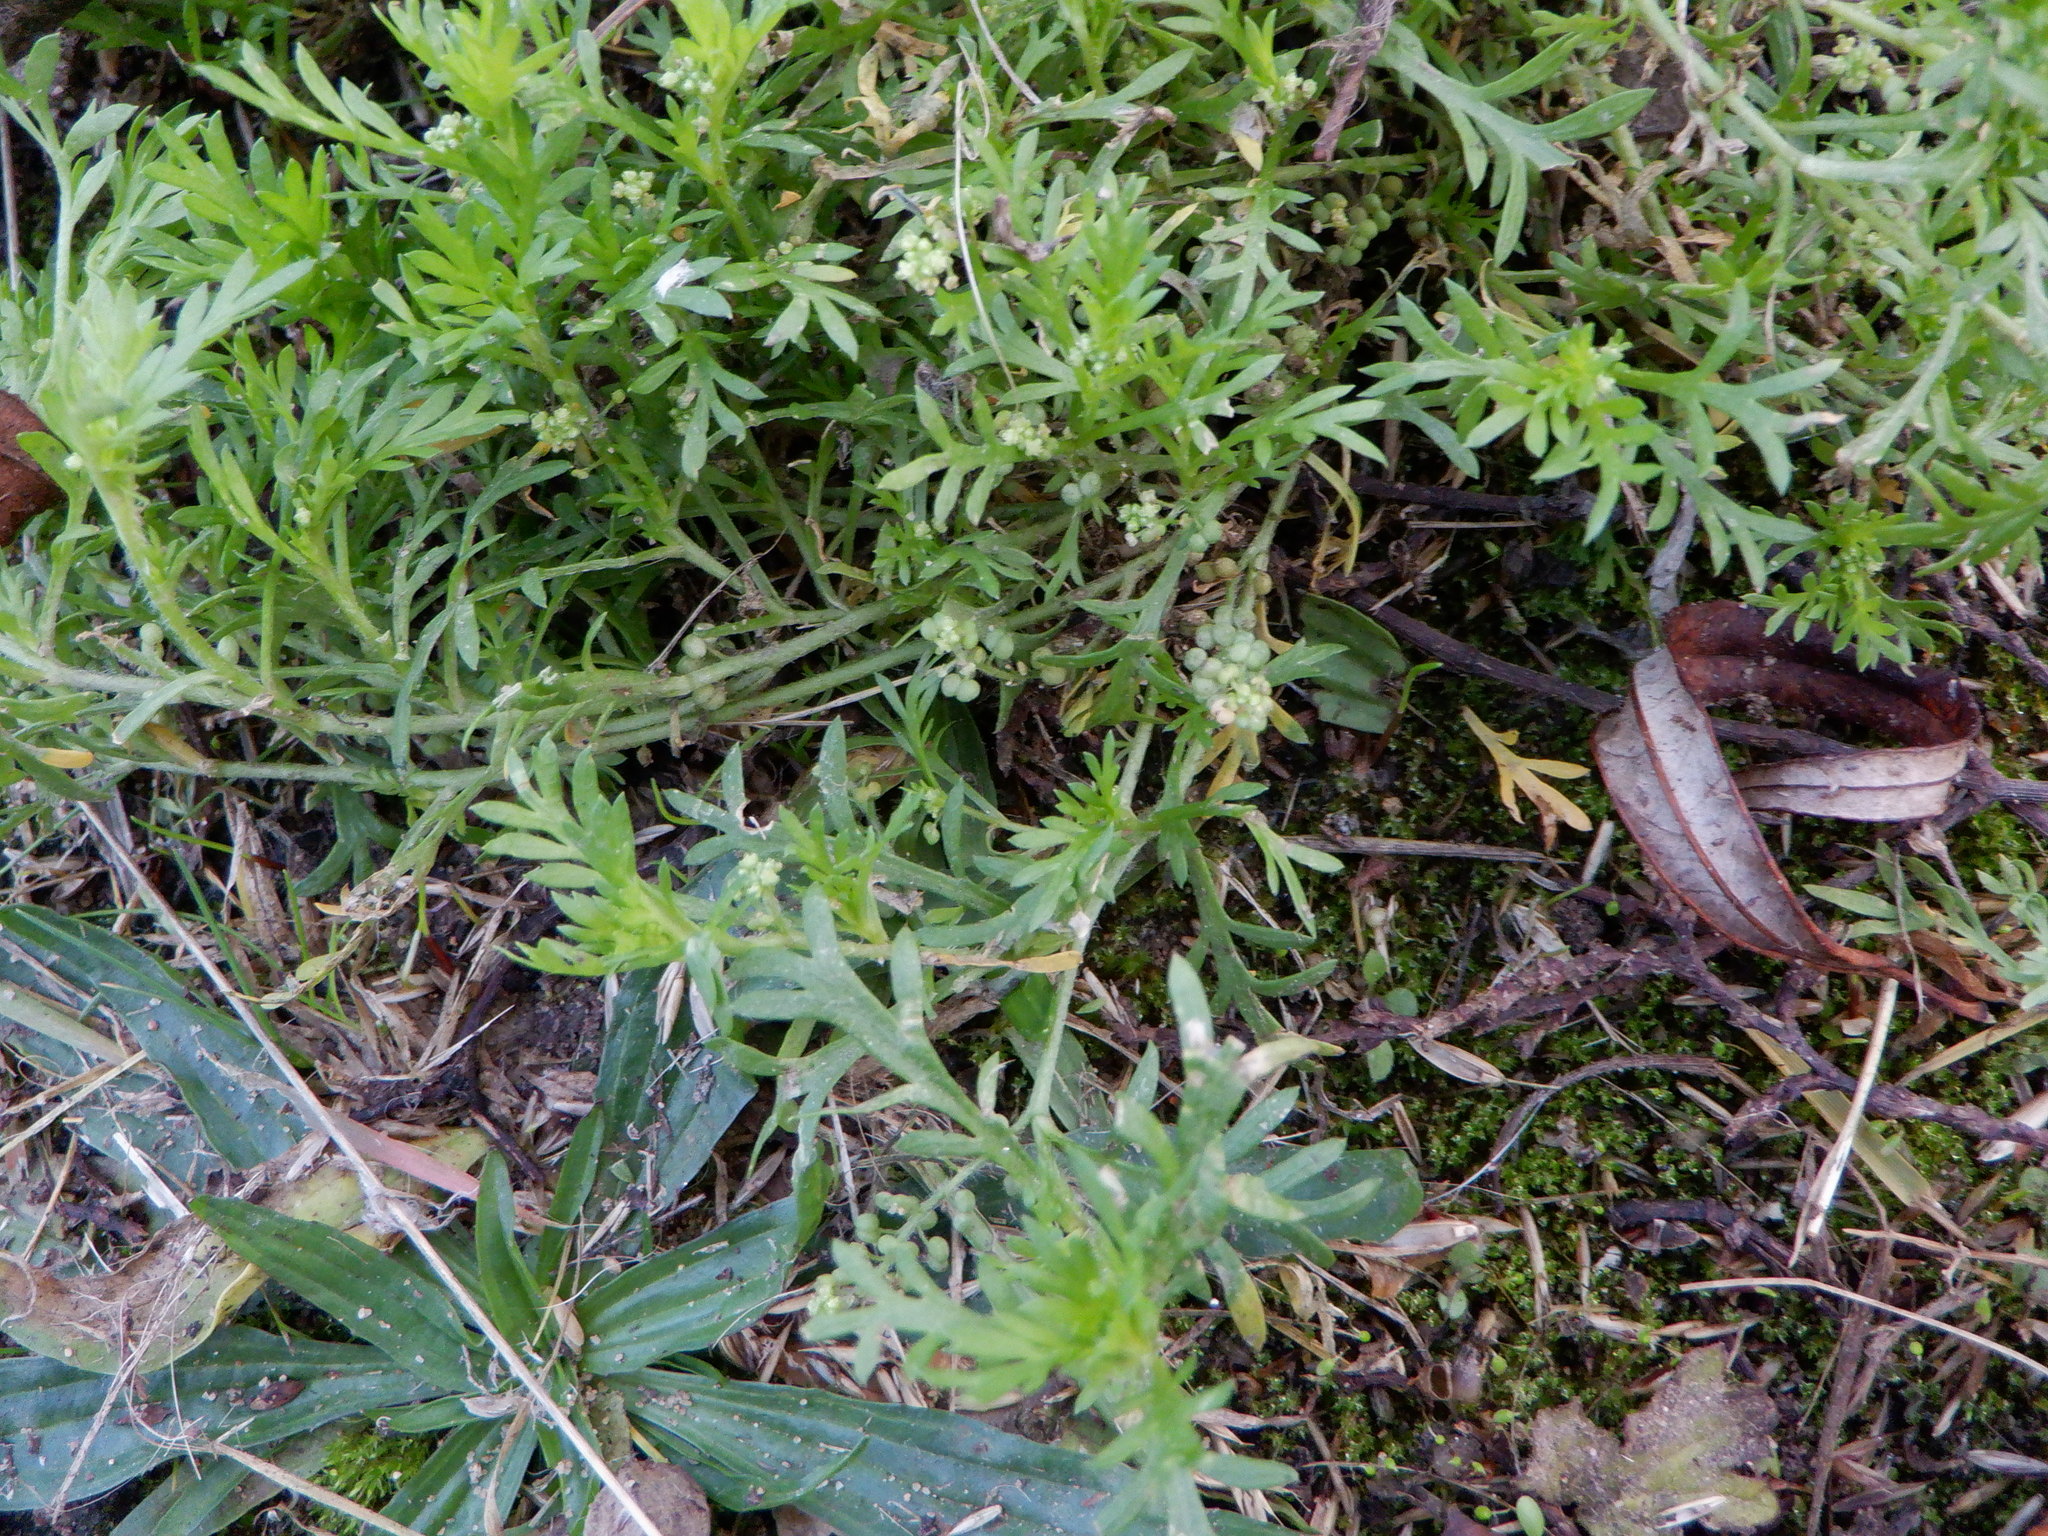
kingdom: Plantae
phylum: Tracheophyta
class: Magnoliopsida
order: Brassicales
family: Brassicaceae
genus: Lepidium
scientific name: Lepidium didymum
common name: Lesser swinecress
